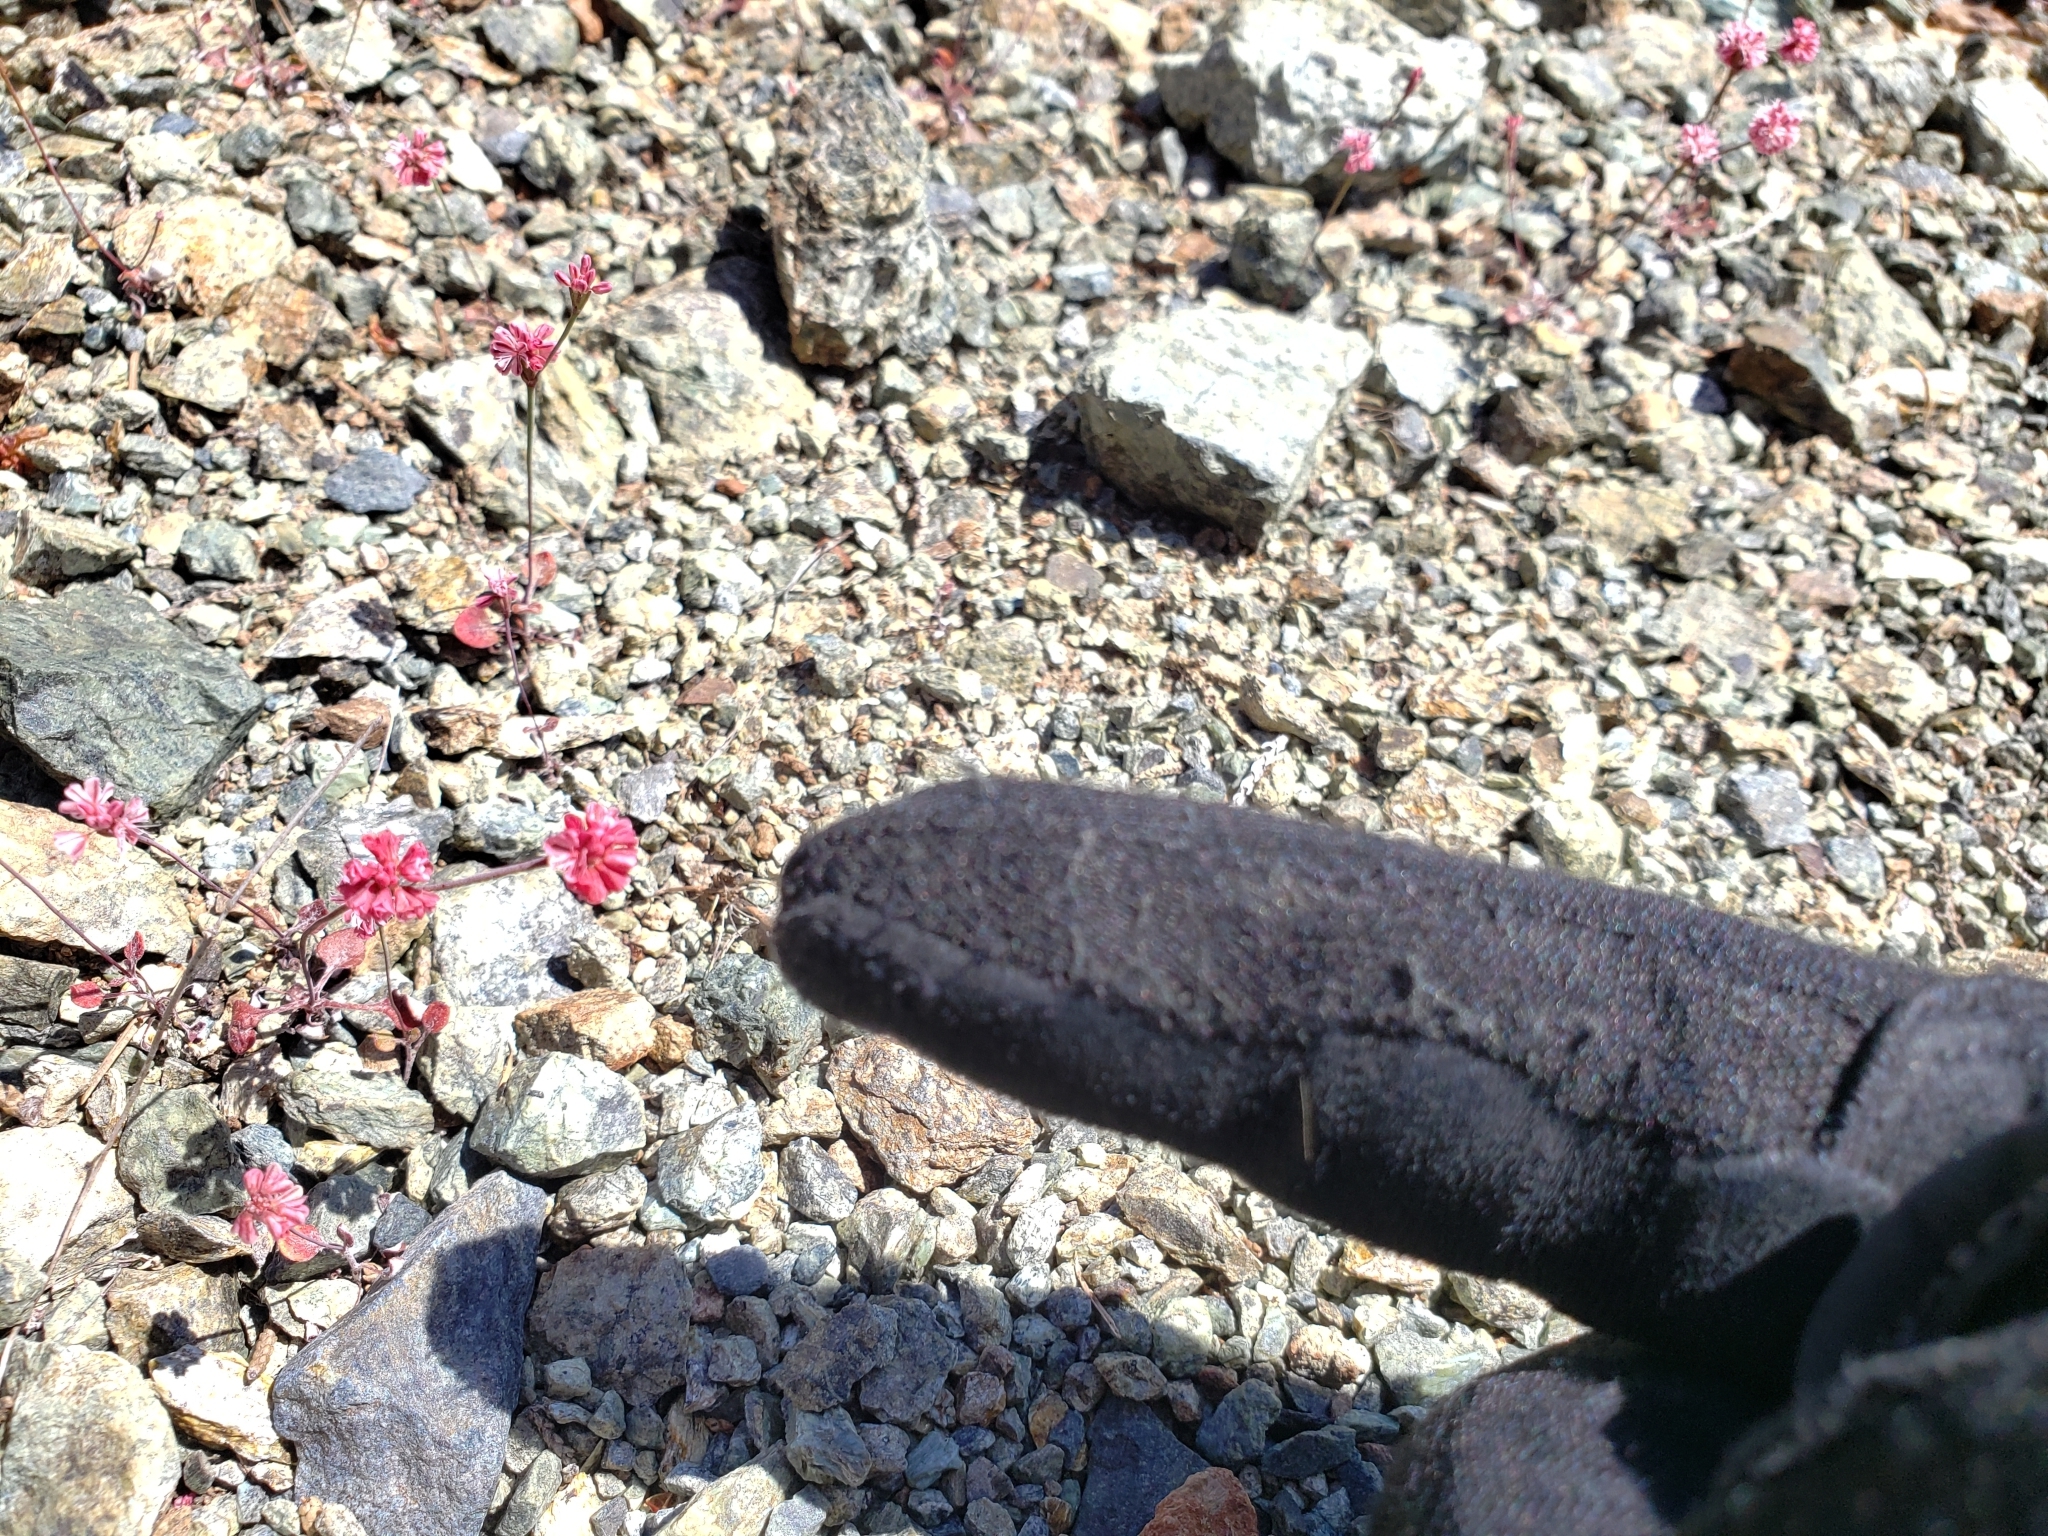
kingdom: Plantae
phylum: Tracheophyta
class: Magnoliopsida
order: Caryophyllales
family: Polygonaceae
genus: Eriogonum
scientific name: Eriogonum luteolum
